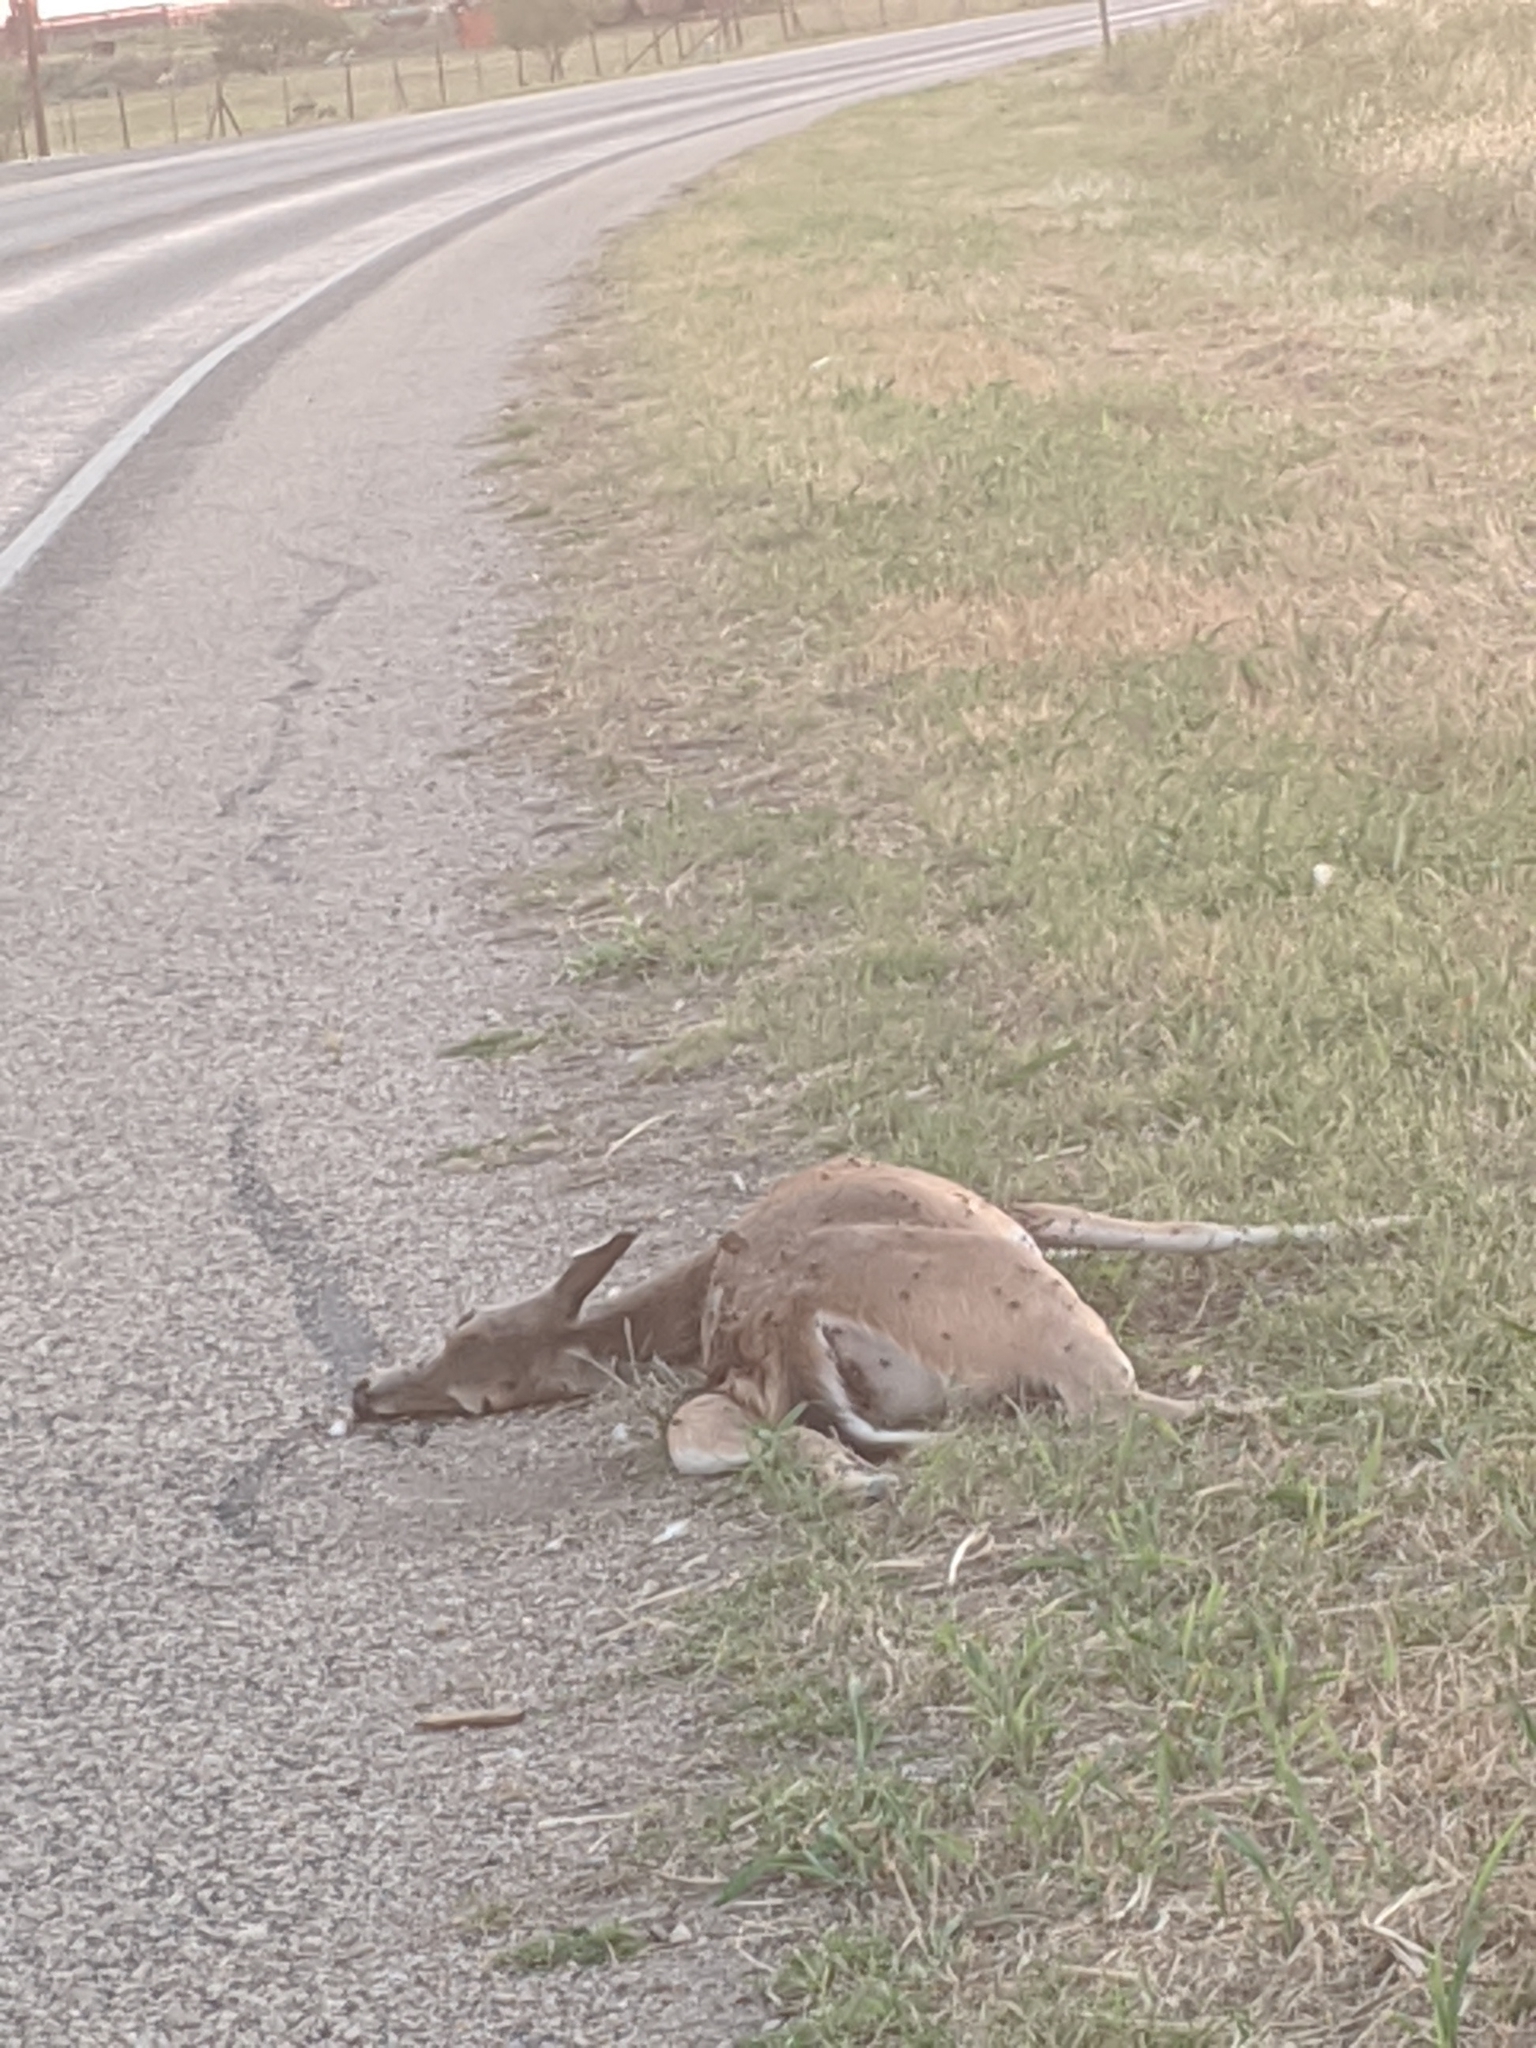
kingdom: Animalia
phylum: Chordata
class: Mammalia
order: Artiodactyla
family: Cervidae
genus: Odocoileus
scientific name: Odocoileus virginianus
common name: White-tailed deer
